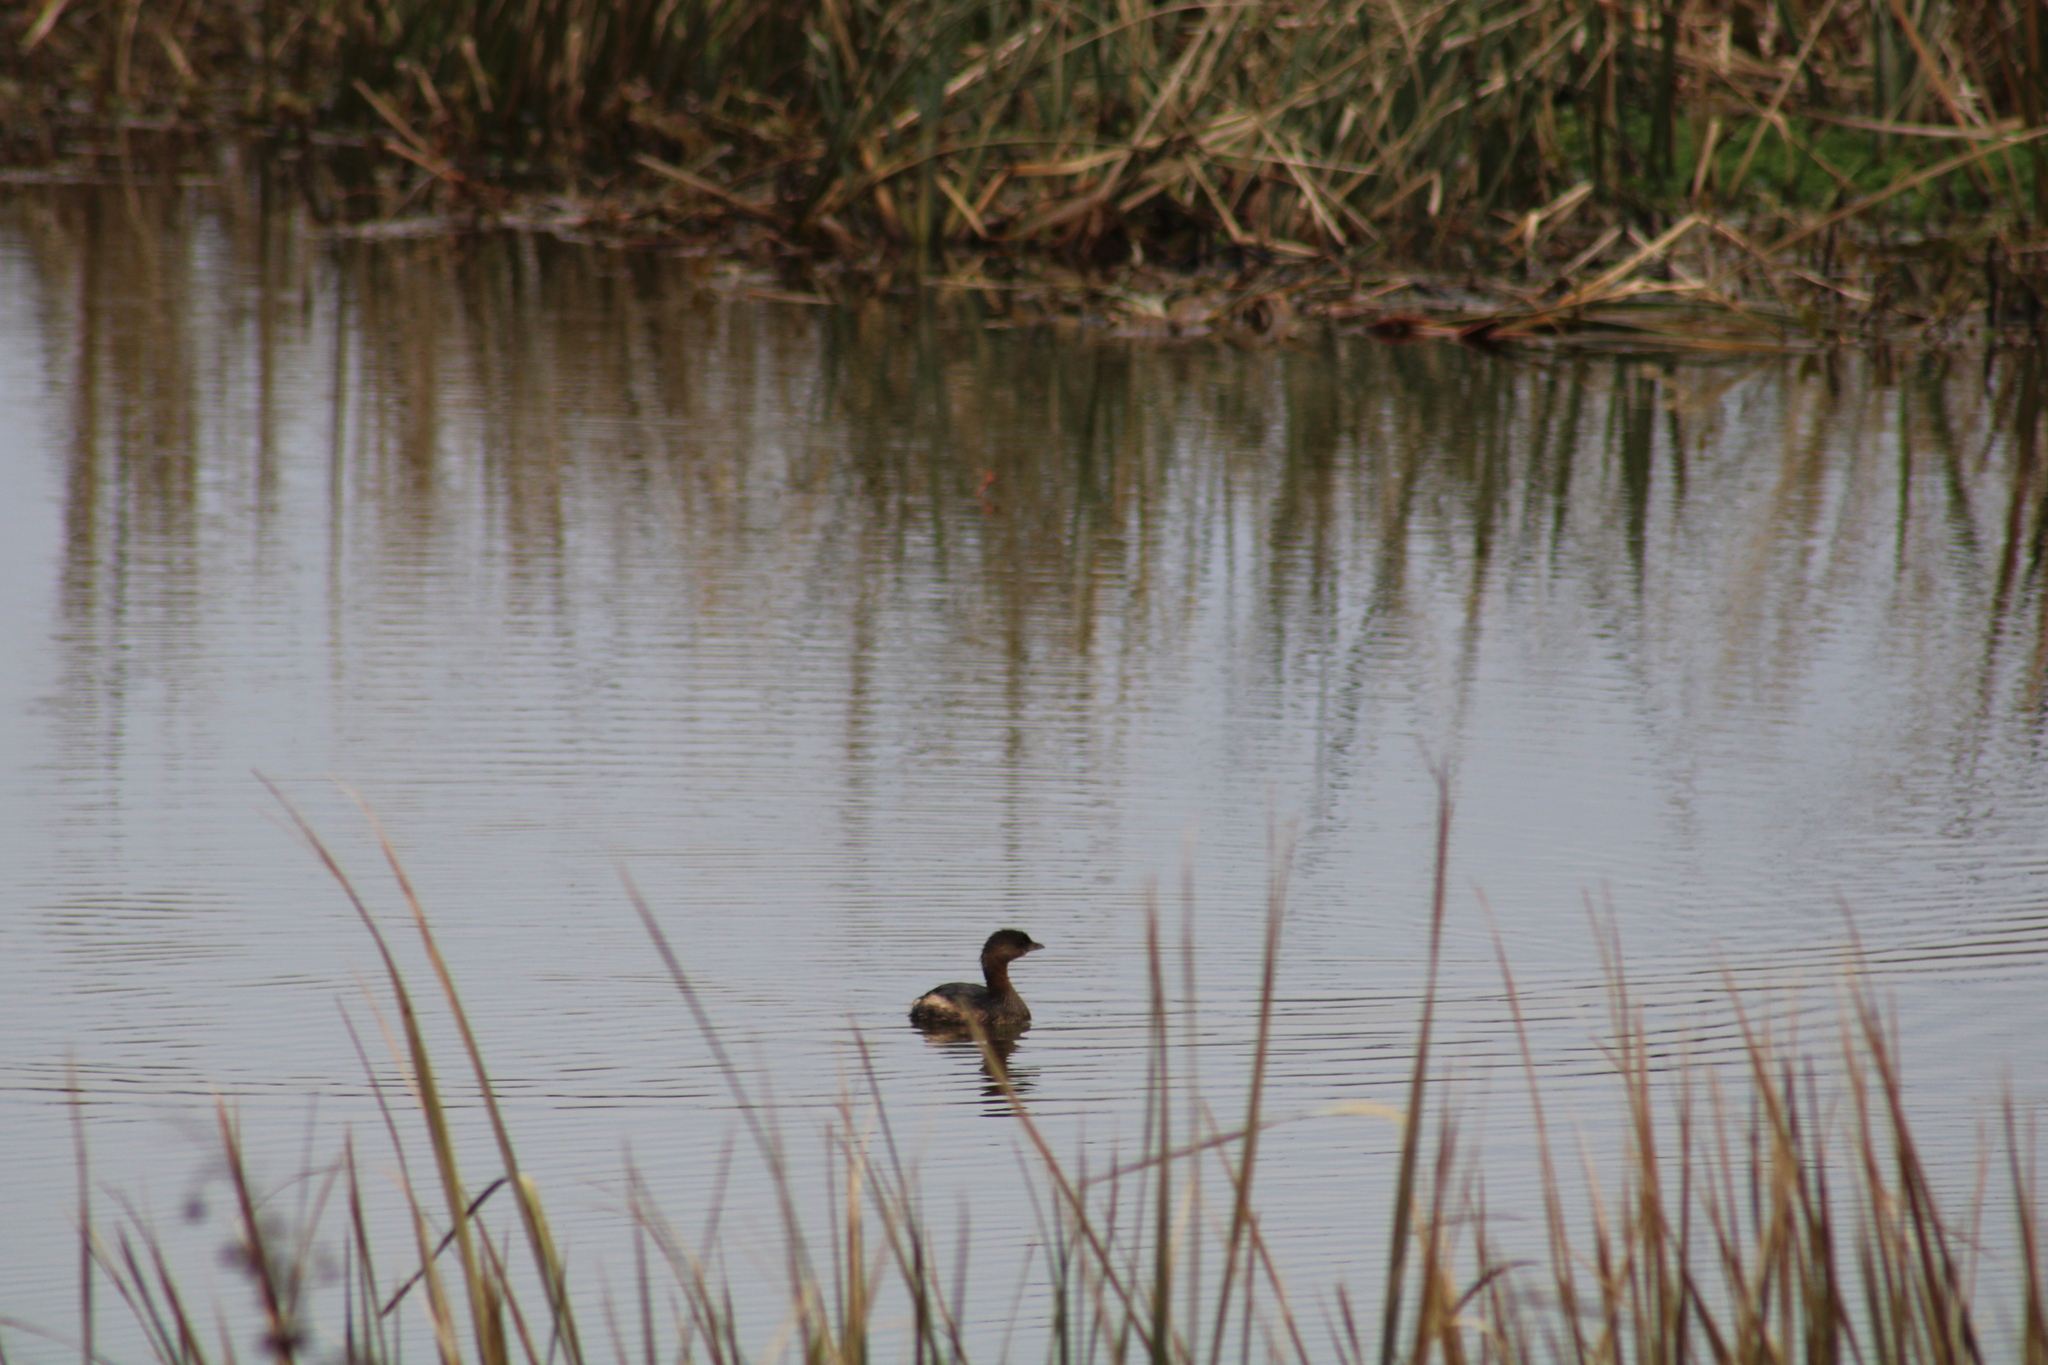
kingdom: Animalia
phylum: Chordata
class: Aves
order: Podicipediformes
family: Podicipedidae
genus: Podilymbus
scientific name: Podilymbus podiceps
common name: Pied-billed grebe
